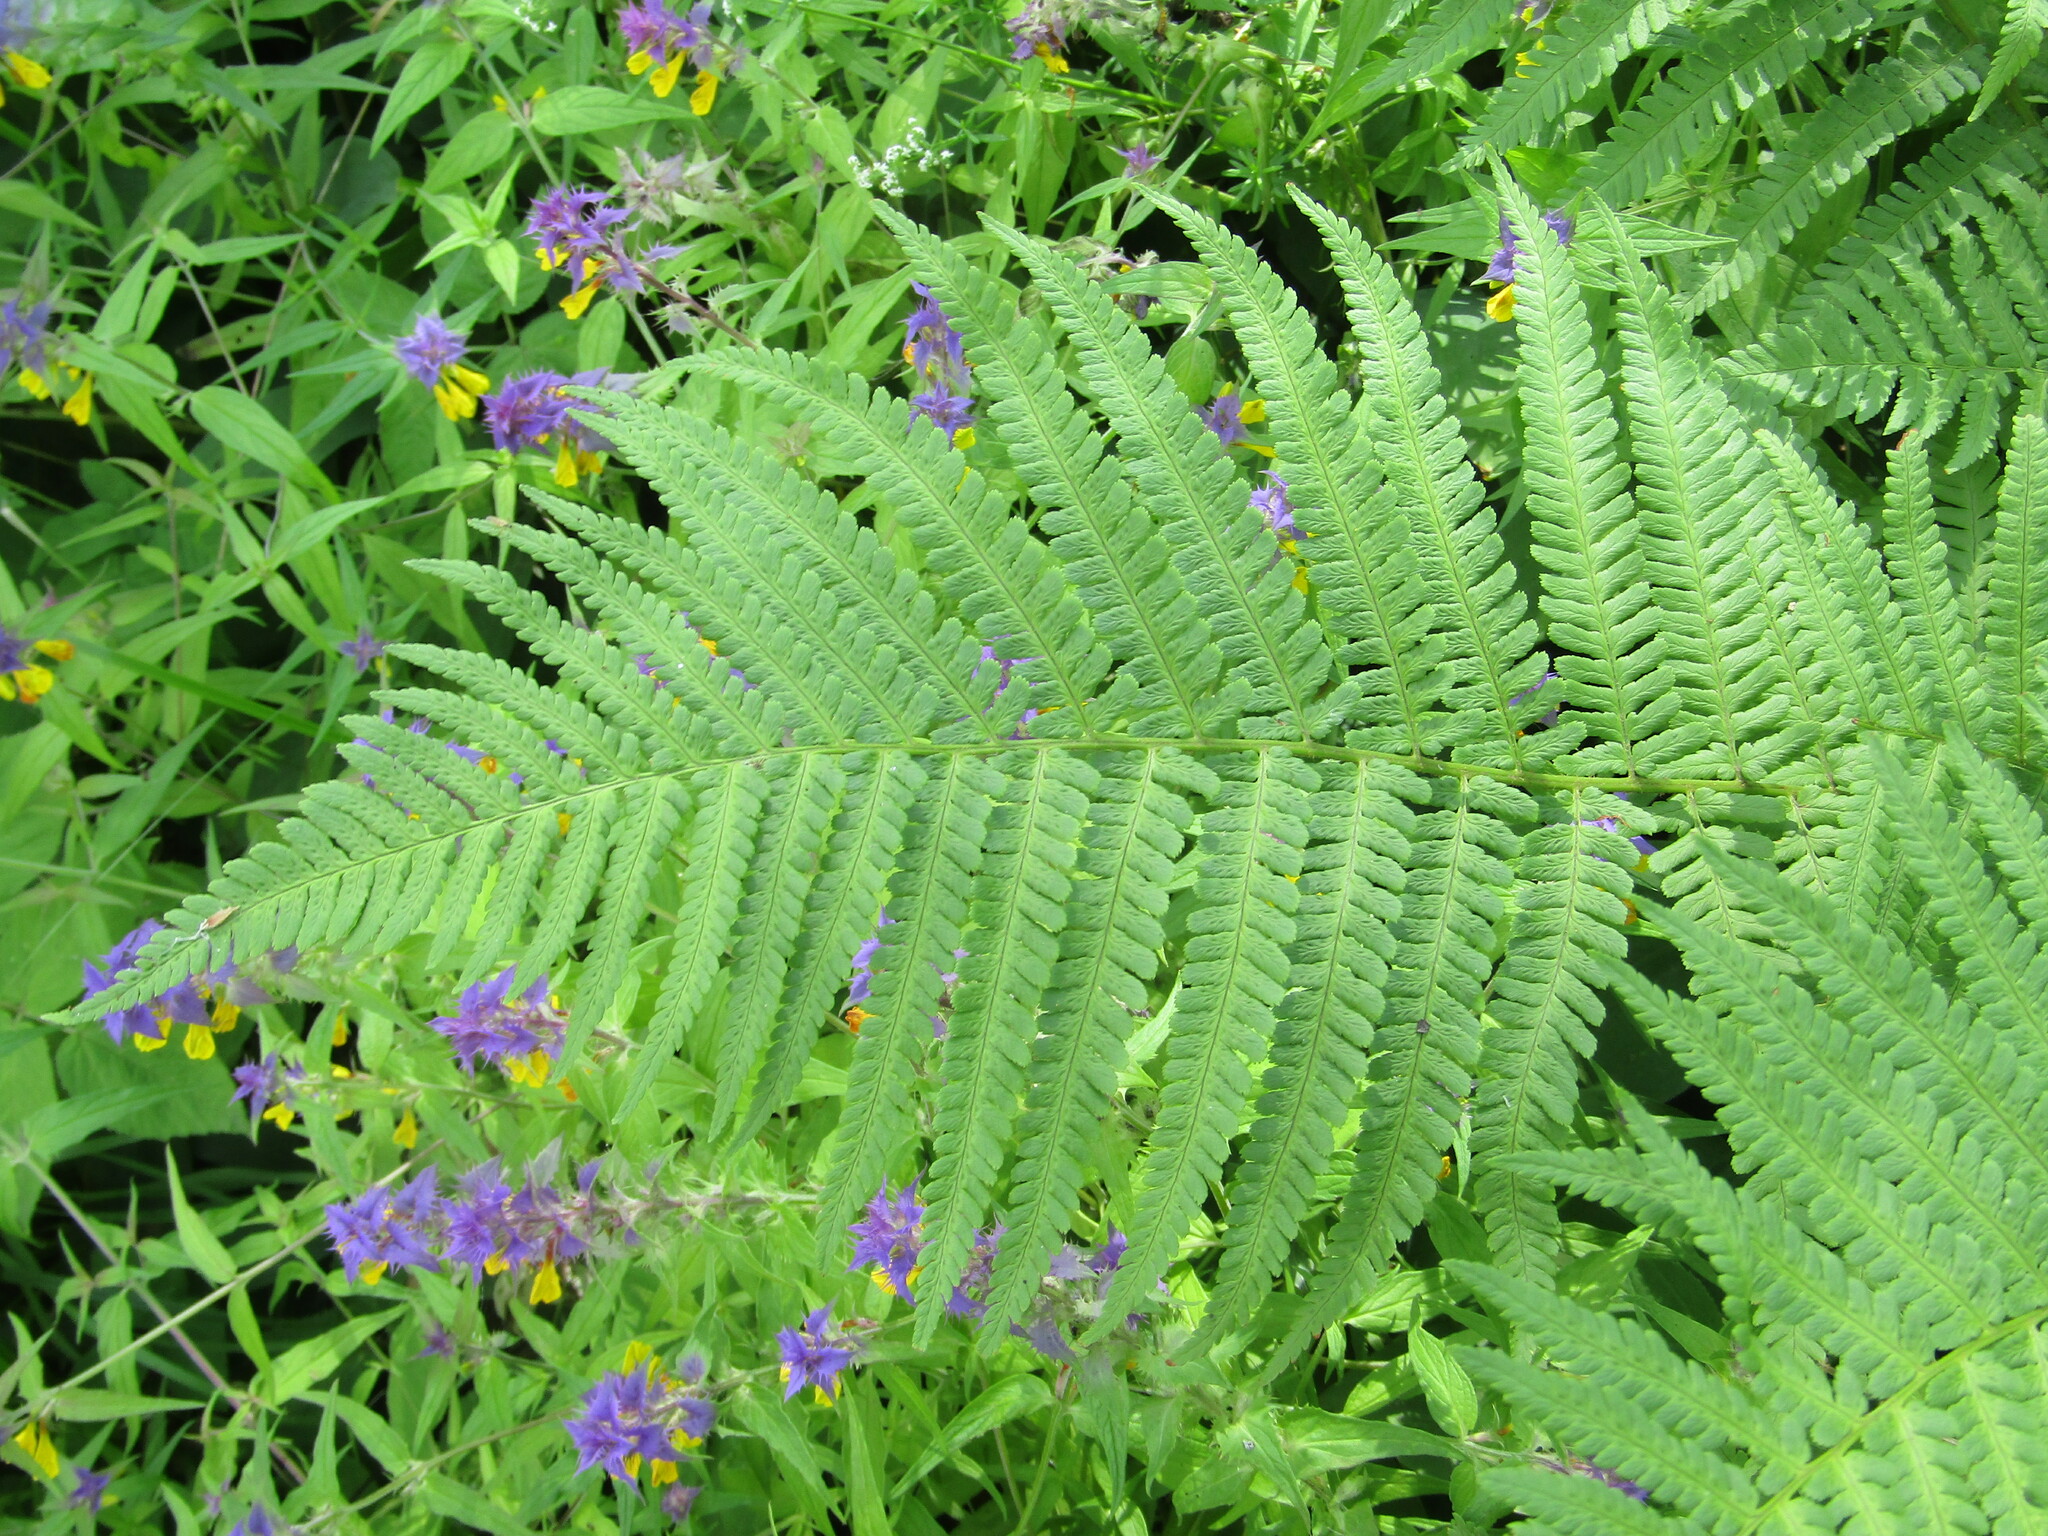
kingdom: Plantae
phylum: Tracheophyta
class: Polypodiopsida
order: Polypodiales
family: Dryopteridaceae
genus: Dryopteris
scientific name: Dryopteris filix-mas
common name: Male fern
